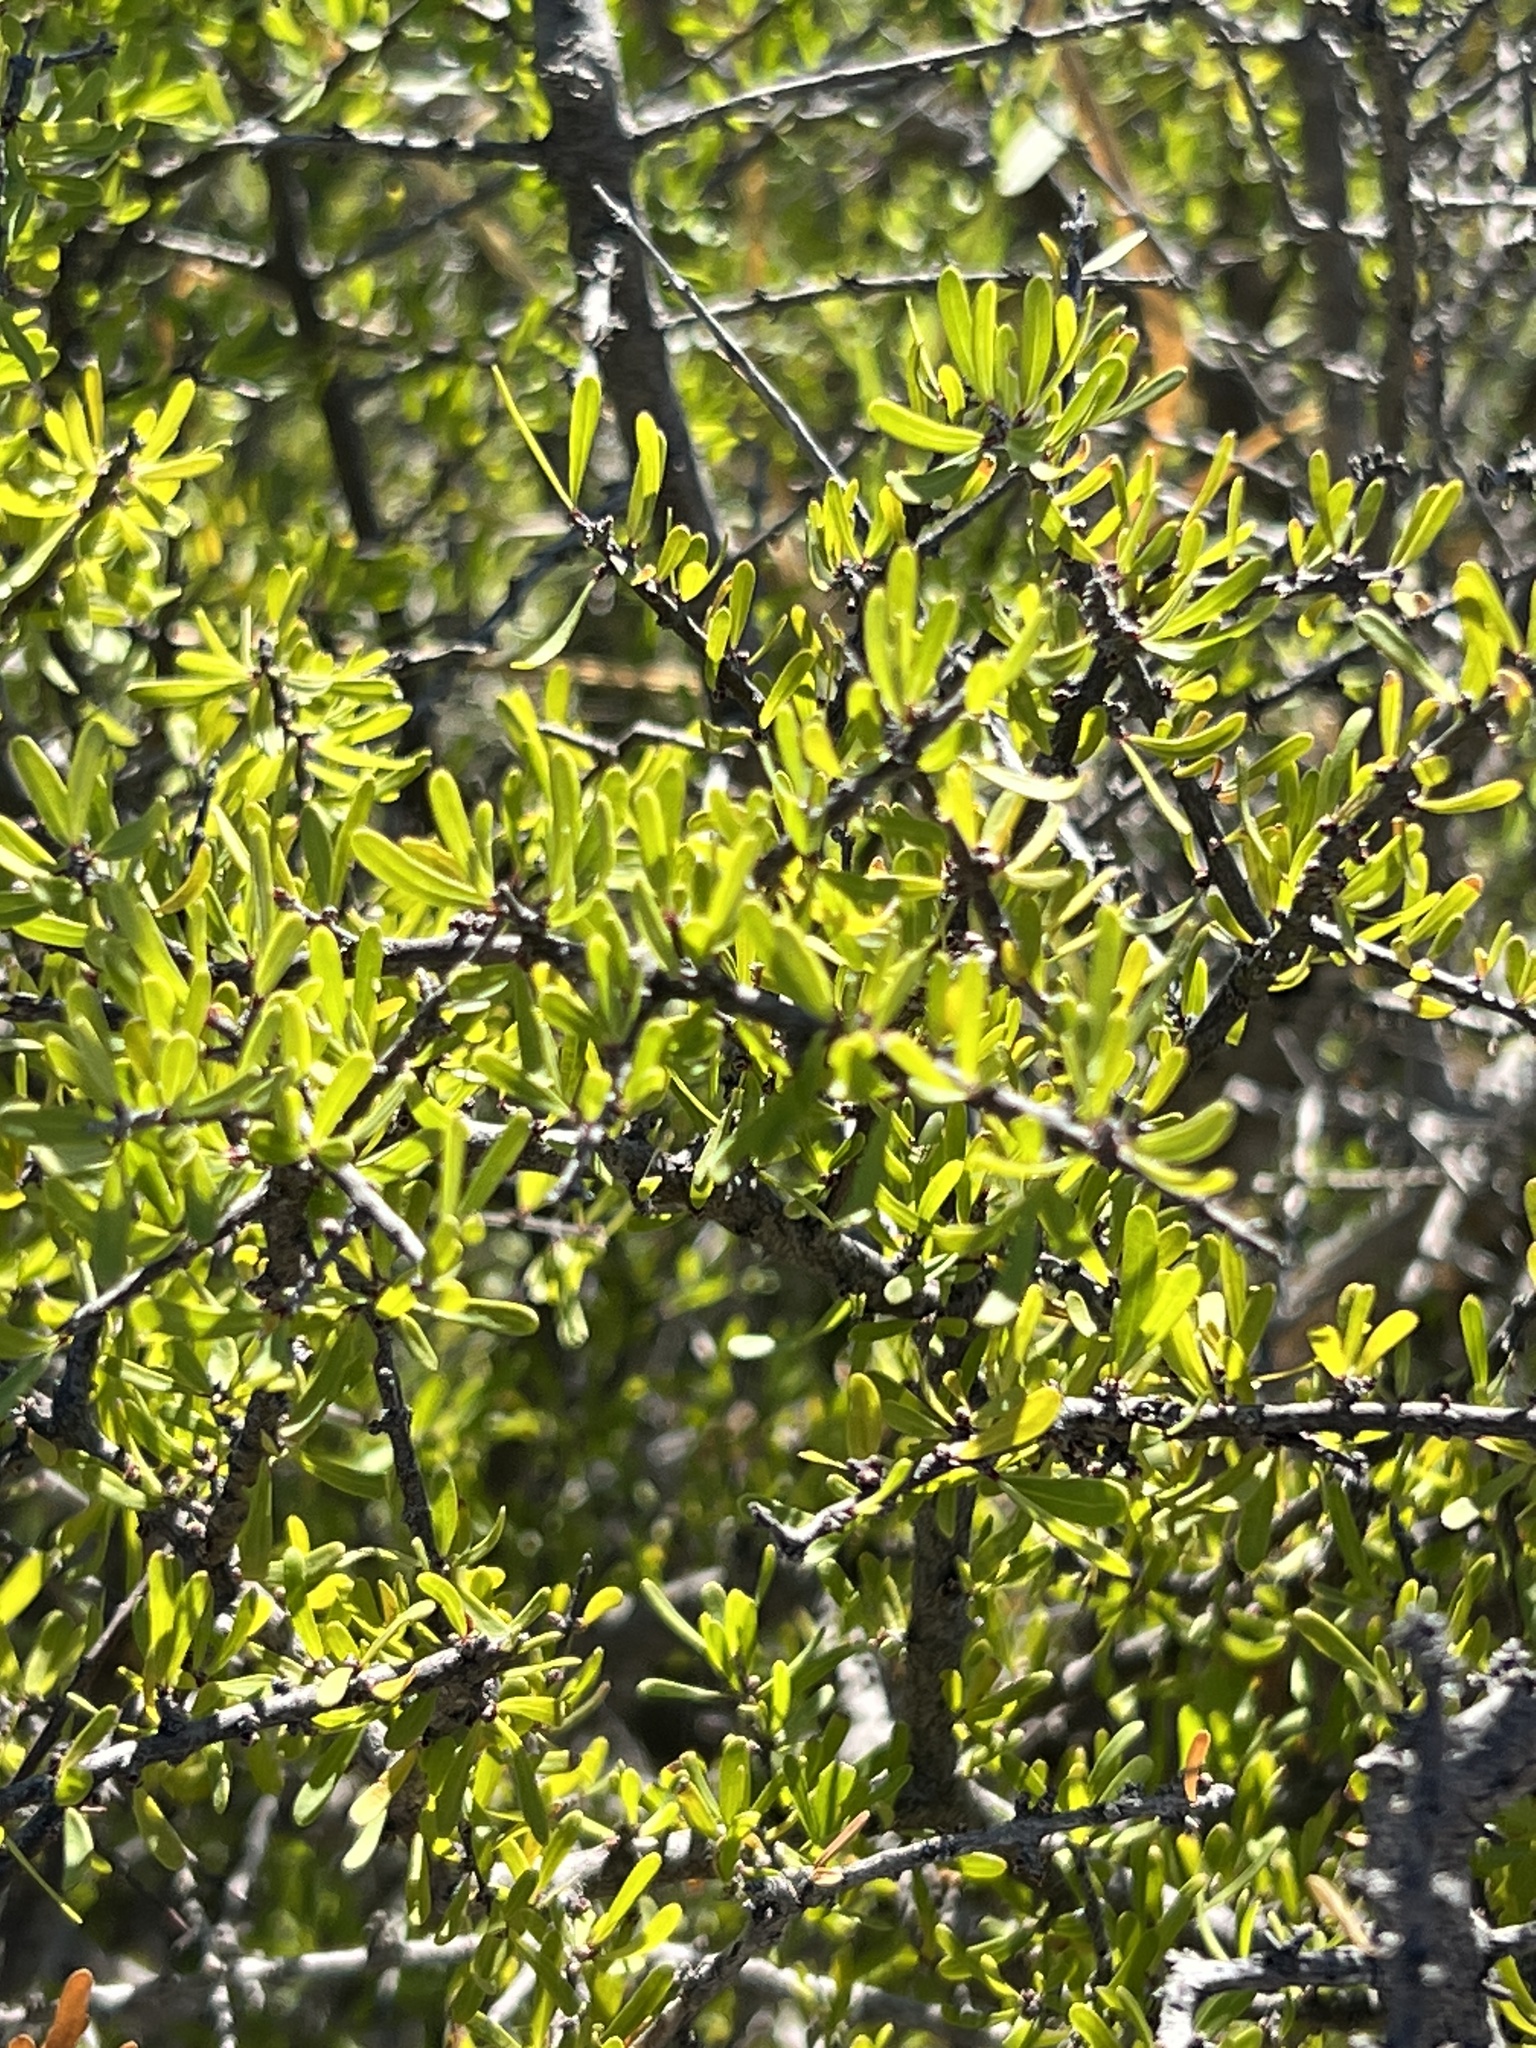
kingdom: Plantae
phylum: Tracheophyta
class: Magnoliopsida
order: Lamiales
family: Oleaceae
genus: Forestiera
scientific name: Forestiera angustifolia
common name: Elbowbush
